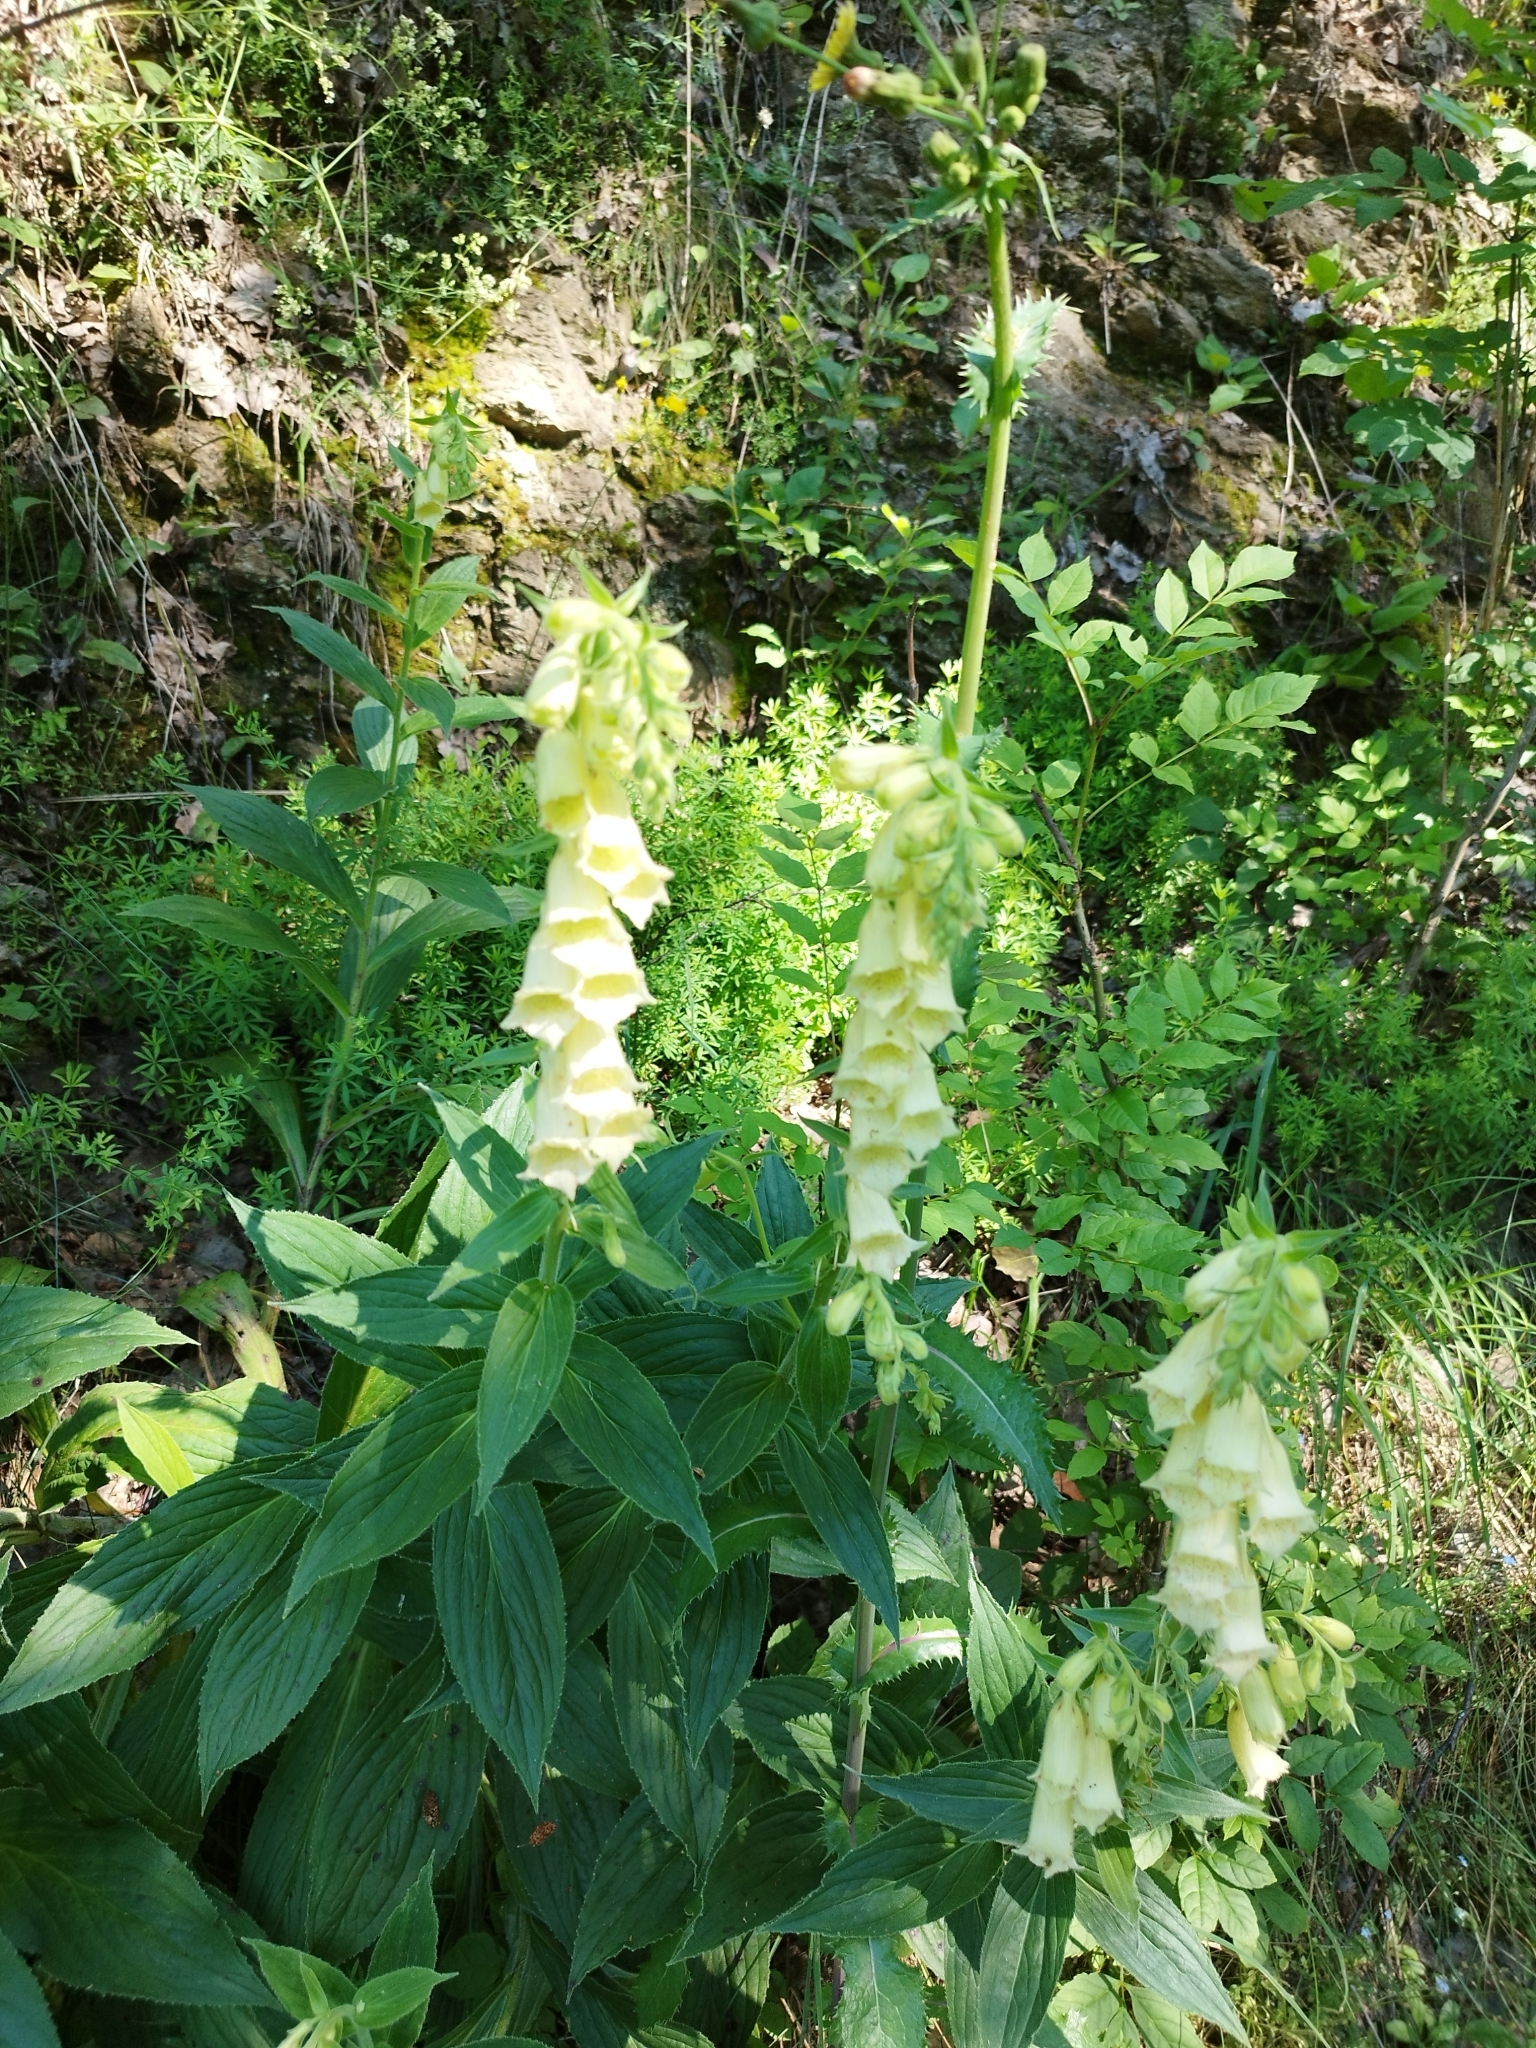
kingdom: Plantae
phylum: Tracheophyta
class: Magnoliopsida
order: Lamiales
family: Plantaginaceae
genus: Digitalis
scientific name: Digitalis grandiflora
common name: Yellow foxglove
